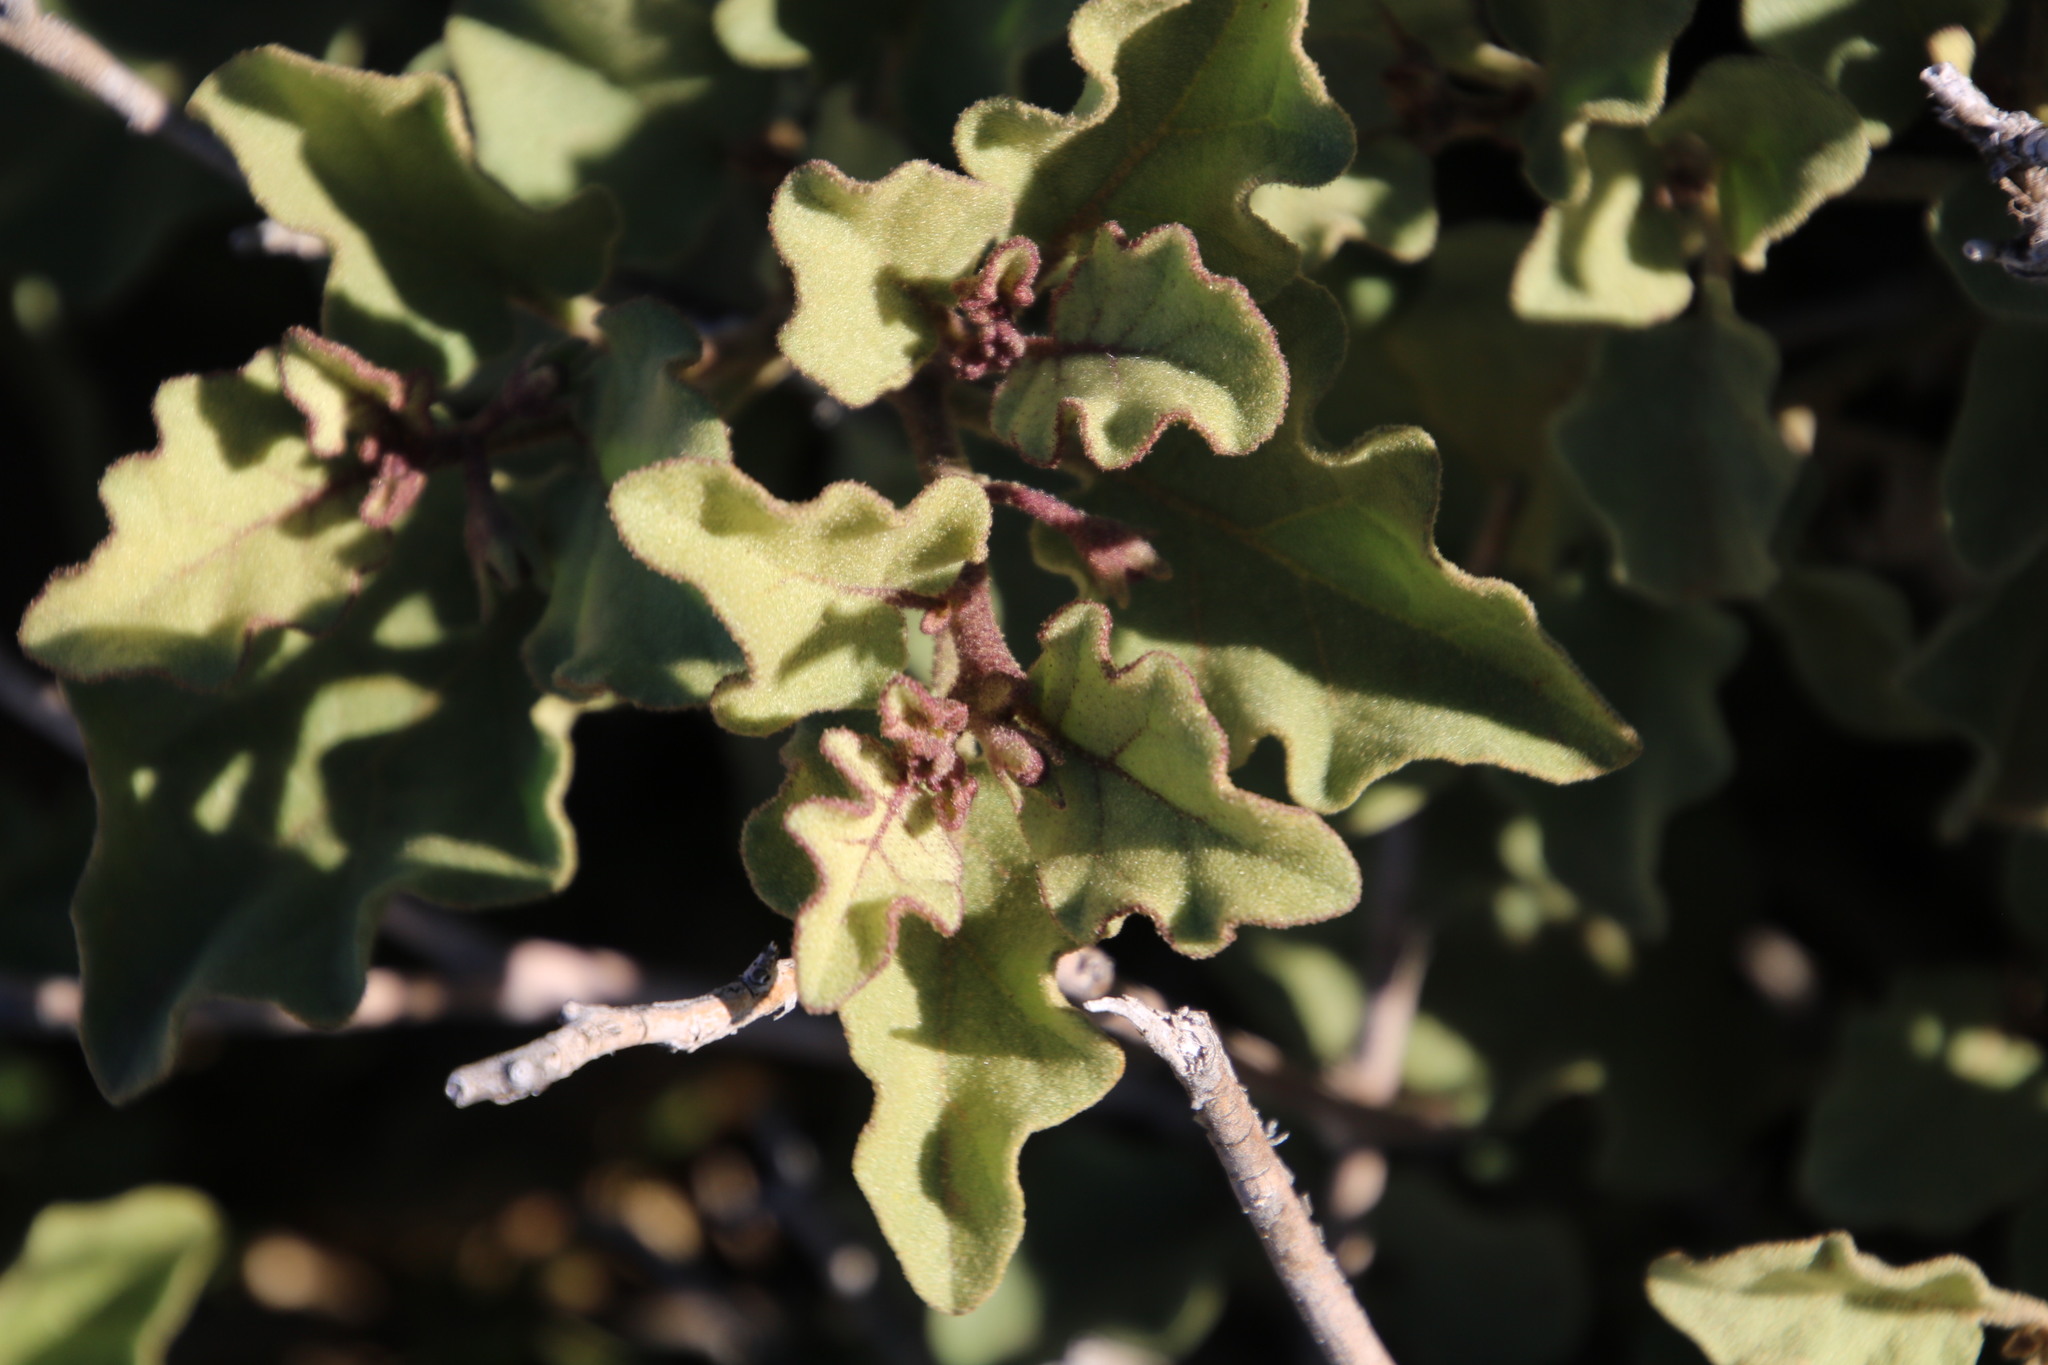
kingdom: Plantae
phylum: Tracheophyta
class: Magnoliopsida
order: Solanales
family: Solanaceae
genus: Solanum
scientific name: Solanum tomentosum
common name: Wild aubergine
